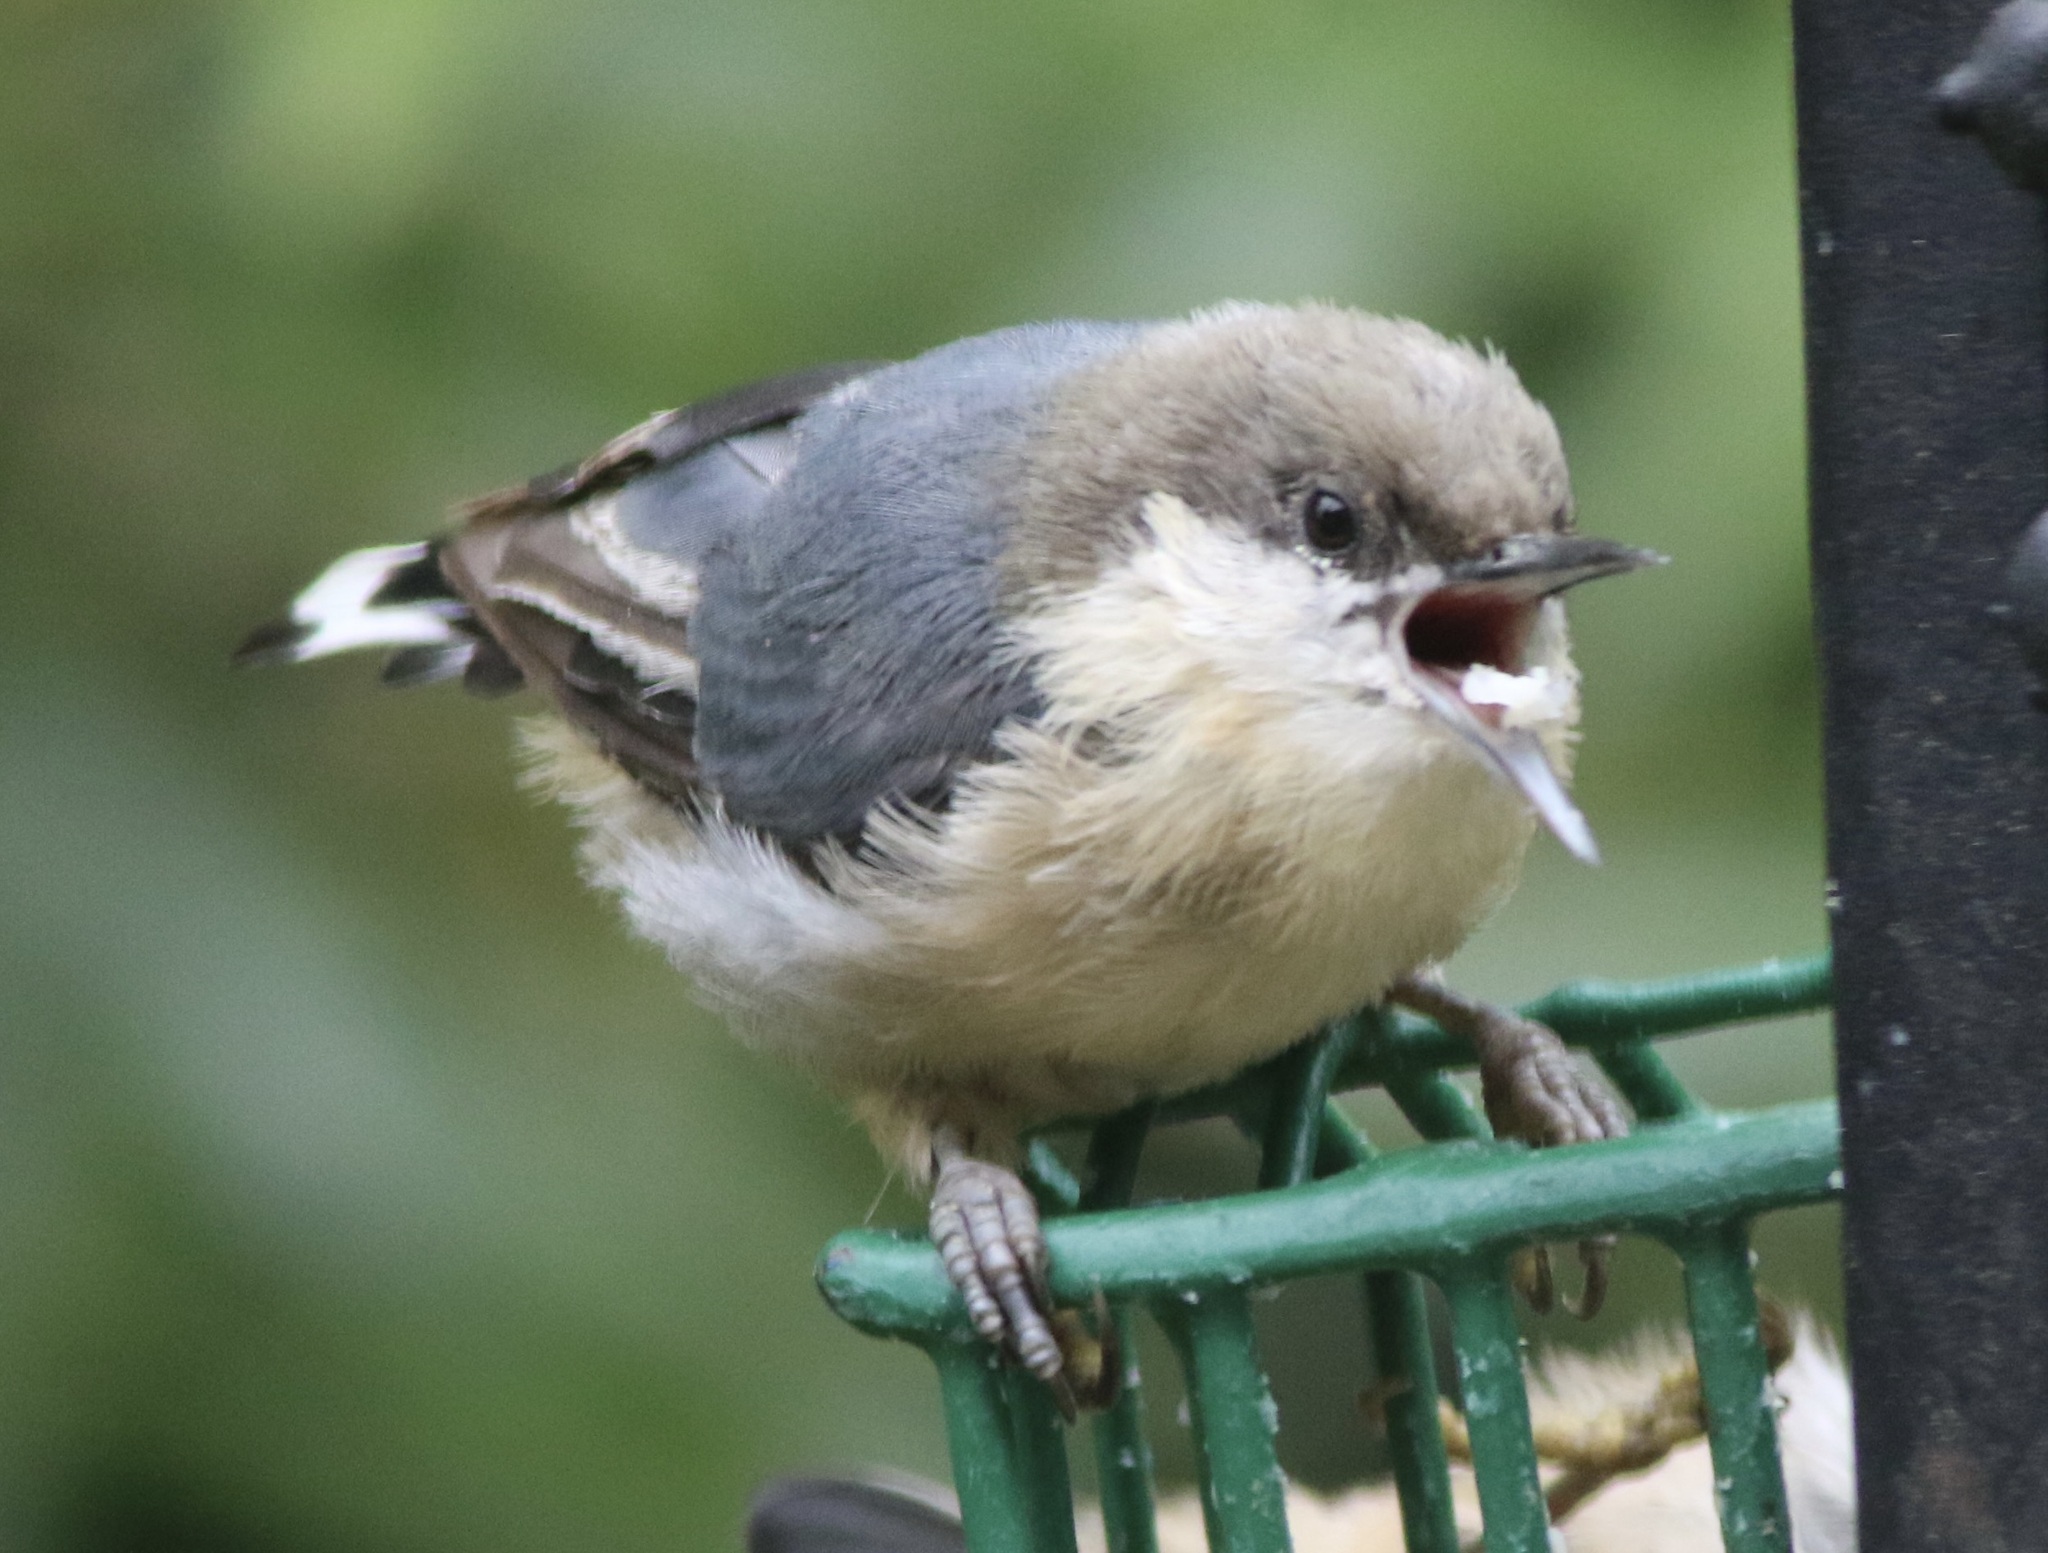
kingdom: Animalia
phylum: Chordata
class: Aves
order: Passeriformes
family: Sittidae
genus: Sitta
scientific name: Sitta pygmaea
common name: Pygmy nuthatch
